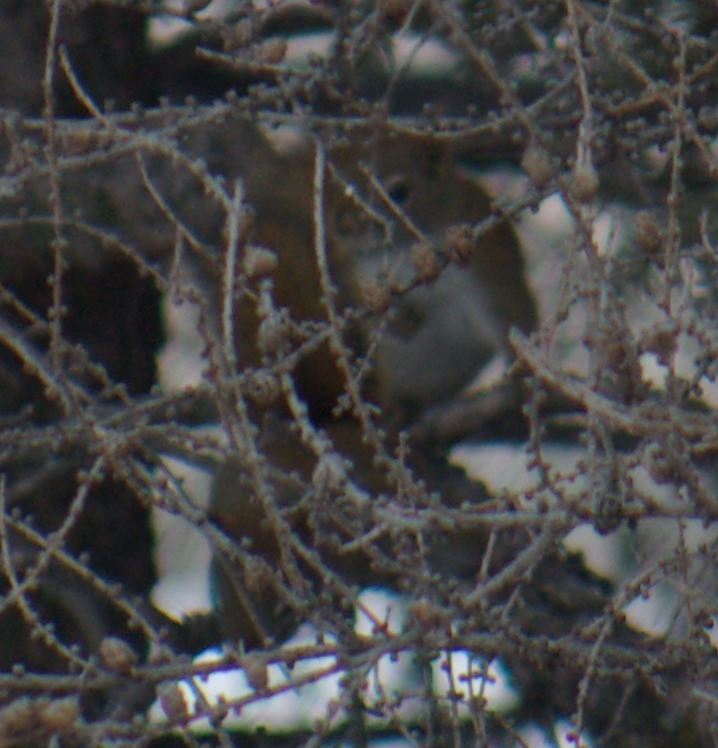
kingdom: Animalia
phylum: Chordata
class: Mammalia
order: Rodentia
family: Sciuridae
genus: Tamiasciurus
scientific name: Tamiasciurus hudsonicus
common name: Red squirrel
